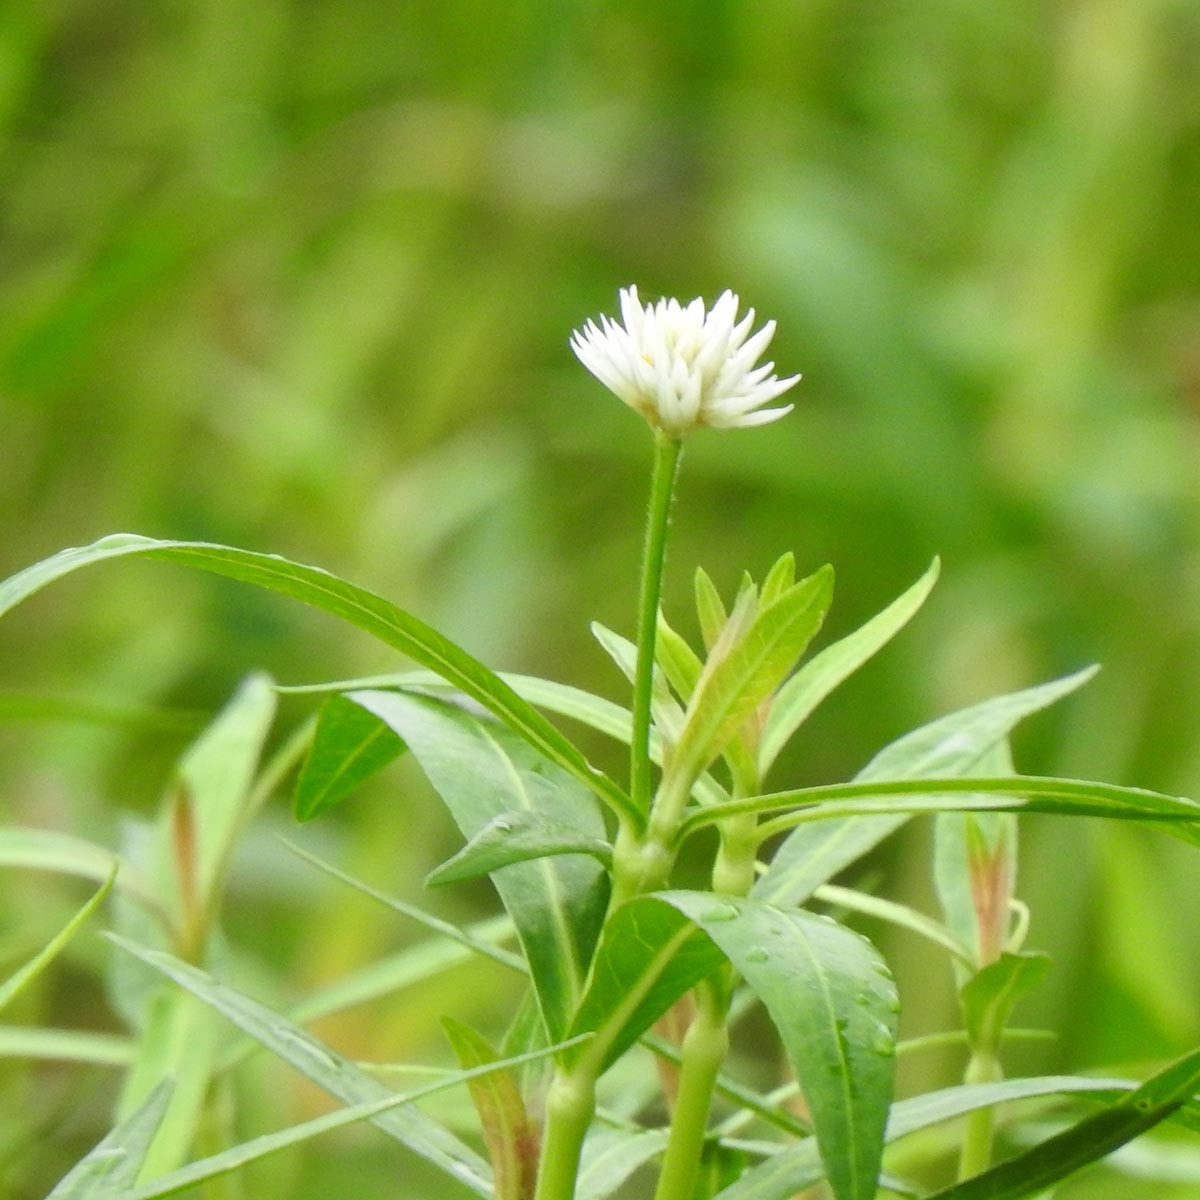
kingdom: Plantae
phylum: Tracheophyta
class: Magnoliopsida
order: Caryophyllales
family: Amaranthaceae
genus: Alternanthera
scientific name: Alternanthera philoxeroides
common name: Alligatorweed
